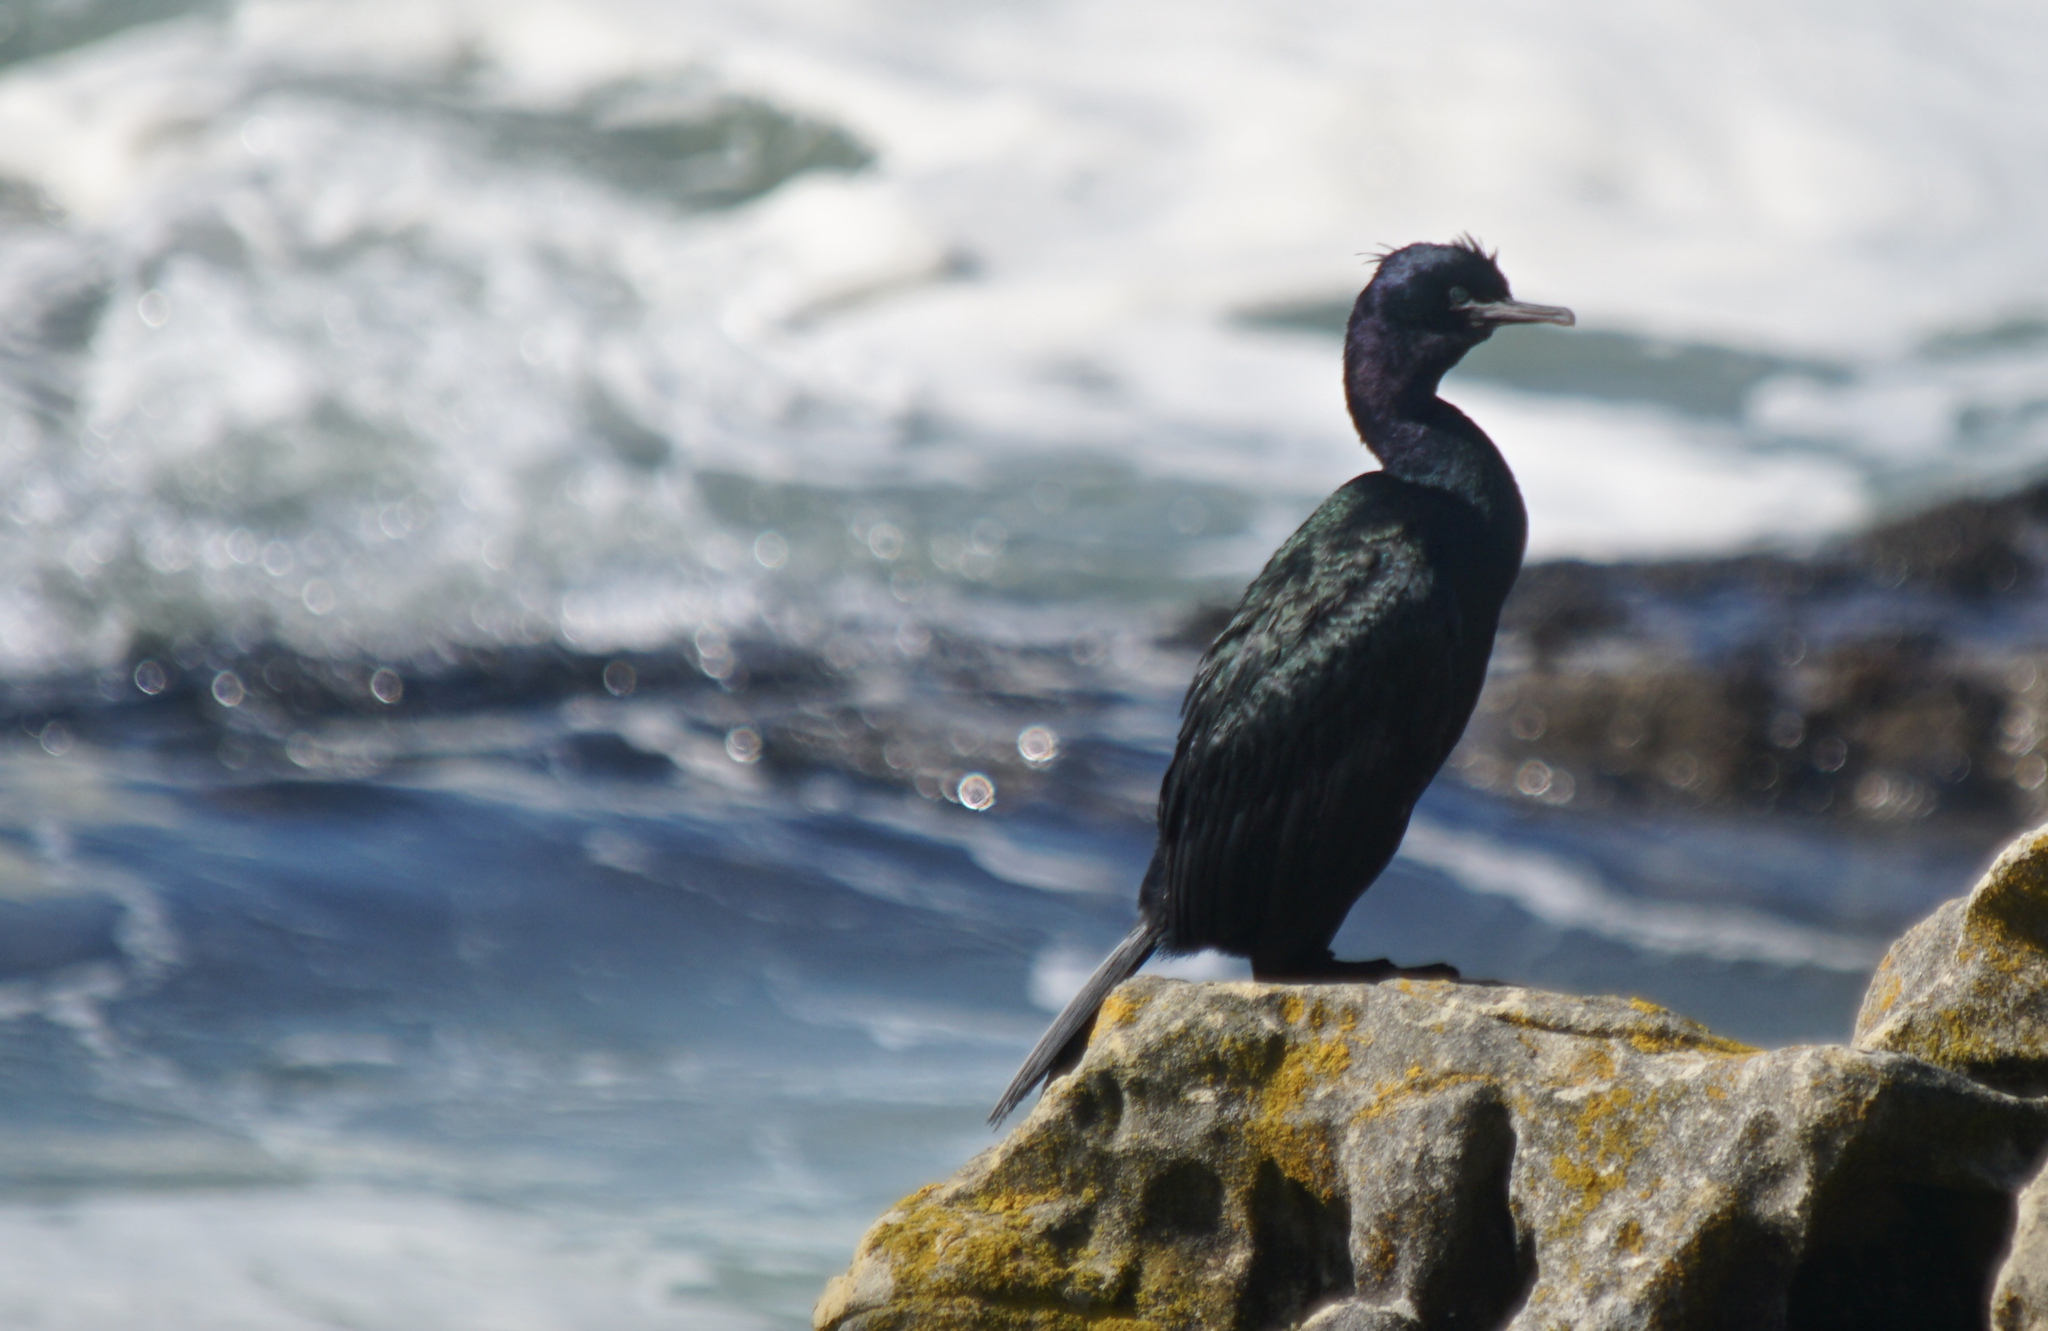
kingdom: Animalia
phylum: Chordata
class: Aves
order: Suliformes
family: Phalacrocoracidae
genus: Phalacrocorax
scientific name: Phalacrocorax pelagicus
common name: Pelagic cormorant
